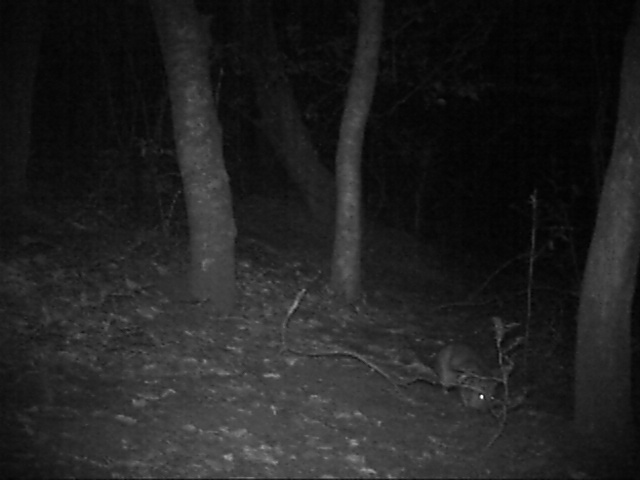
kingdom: Animalia
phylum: Chordata
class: Mammalia
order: Rodentia
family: Nesomyidae
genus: Cricetomys
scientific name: Cricetomys ansorgei
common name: Southern giant pouched rat
